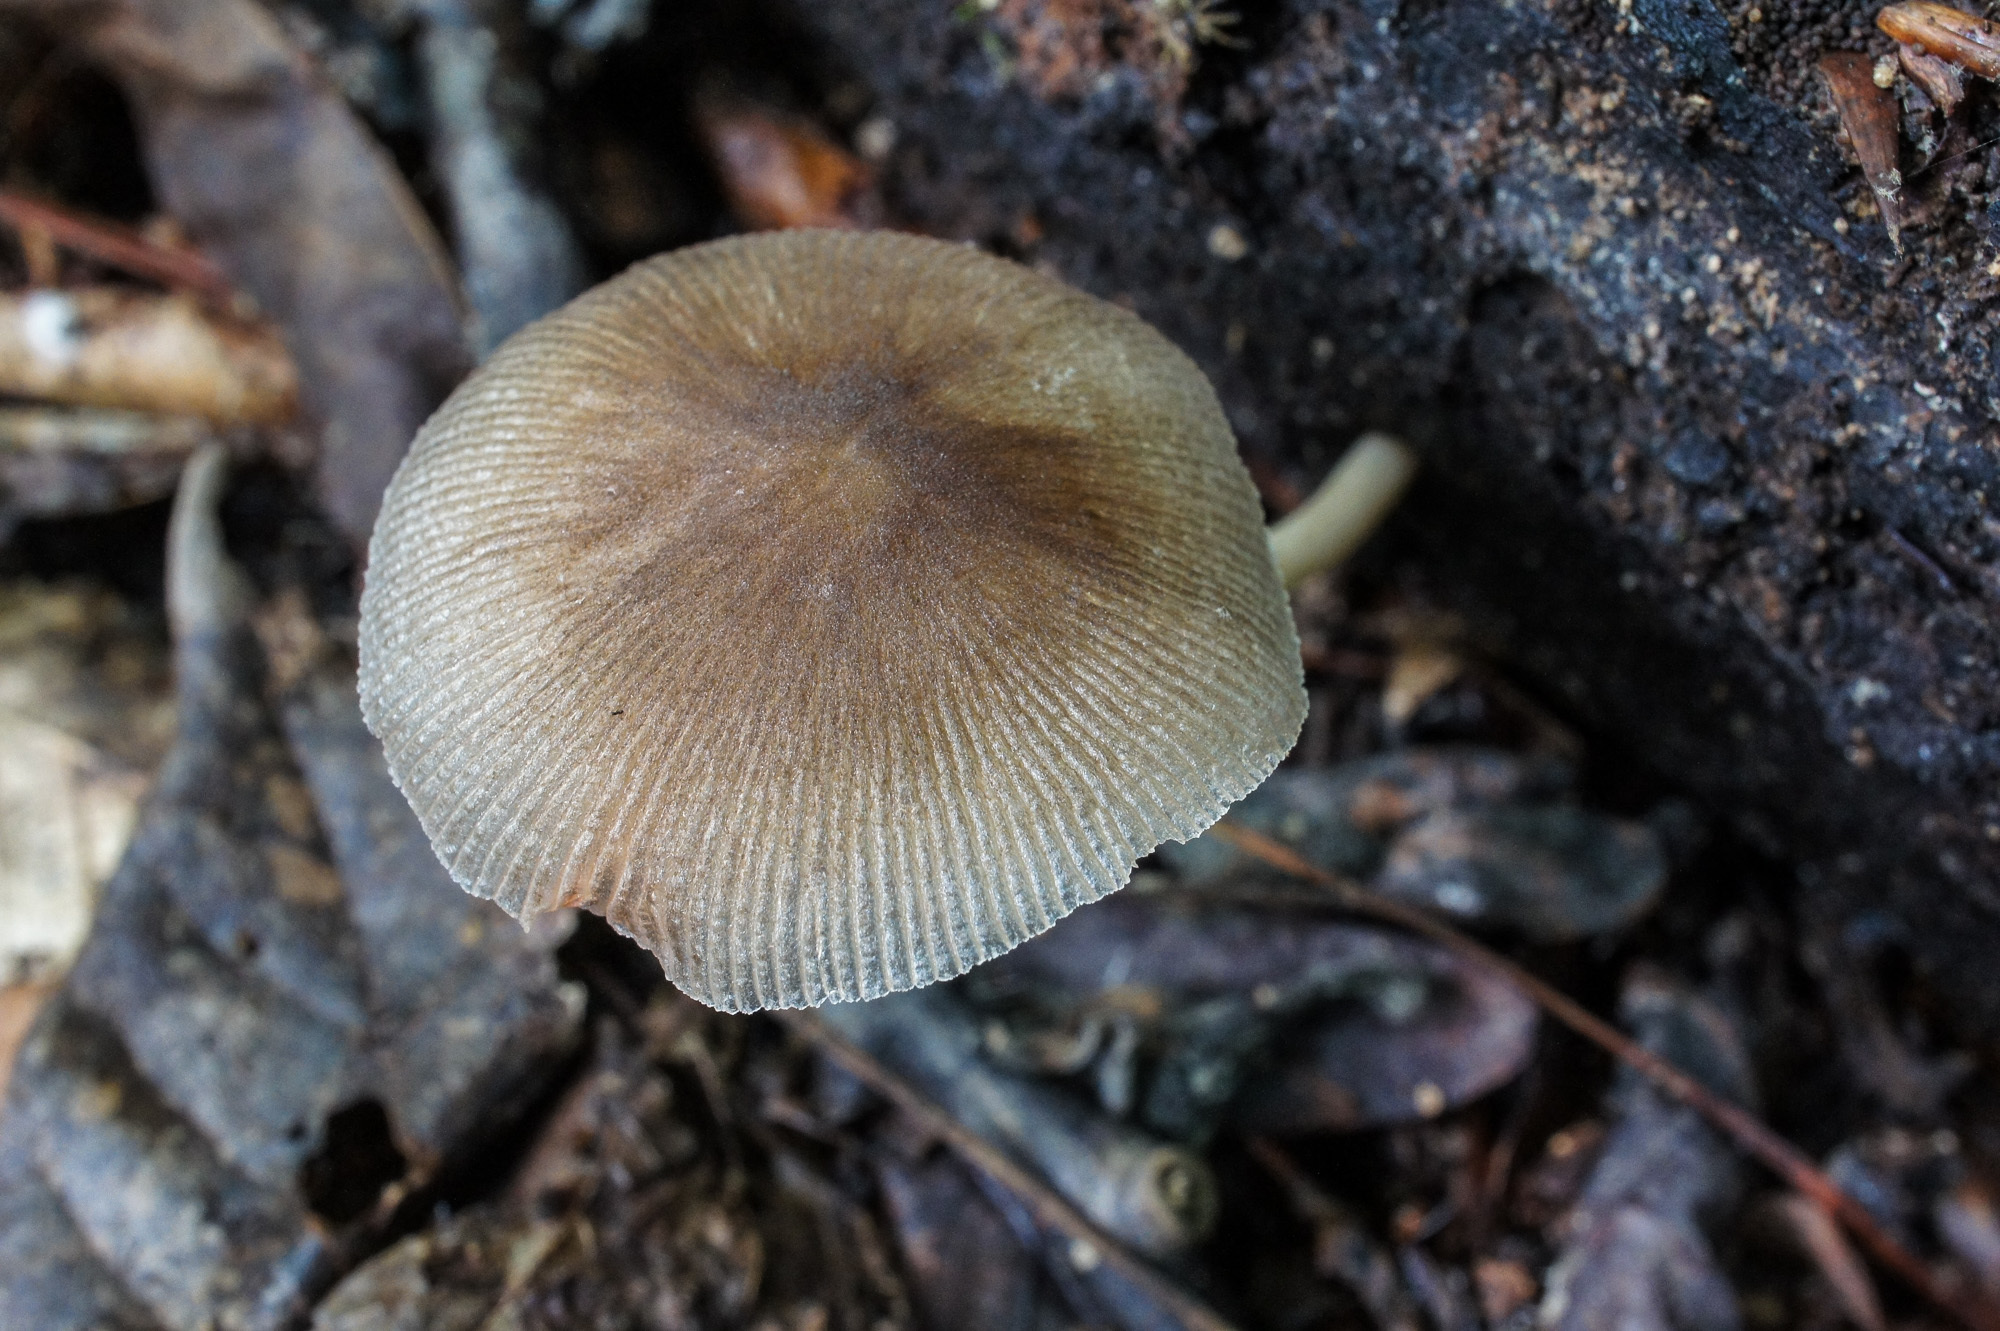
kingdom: Fungi
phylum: Basidiomycota
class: Agaricomycetes
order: Agaricales
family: Pluteaceae
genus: Pluteus
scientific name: Pluteus longistriatus
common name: Pleated pluteus
